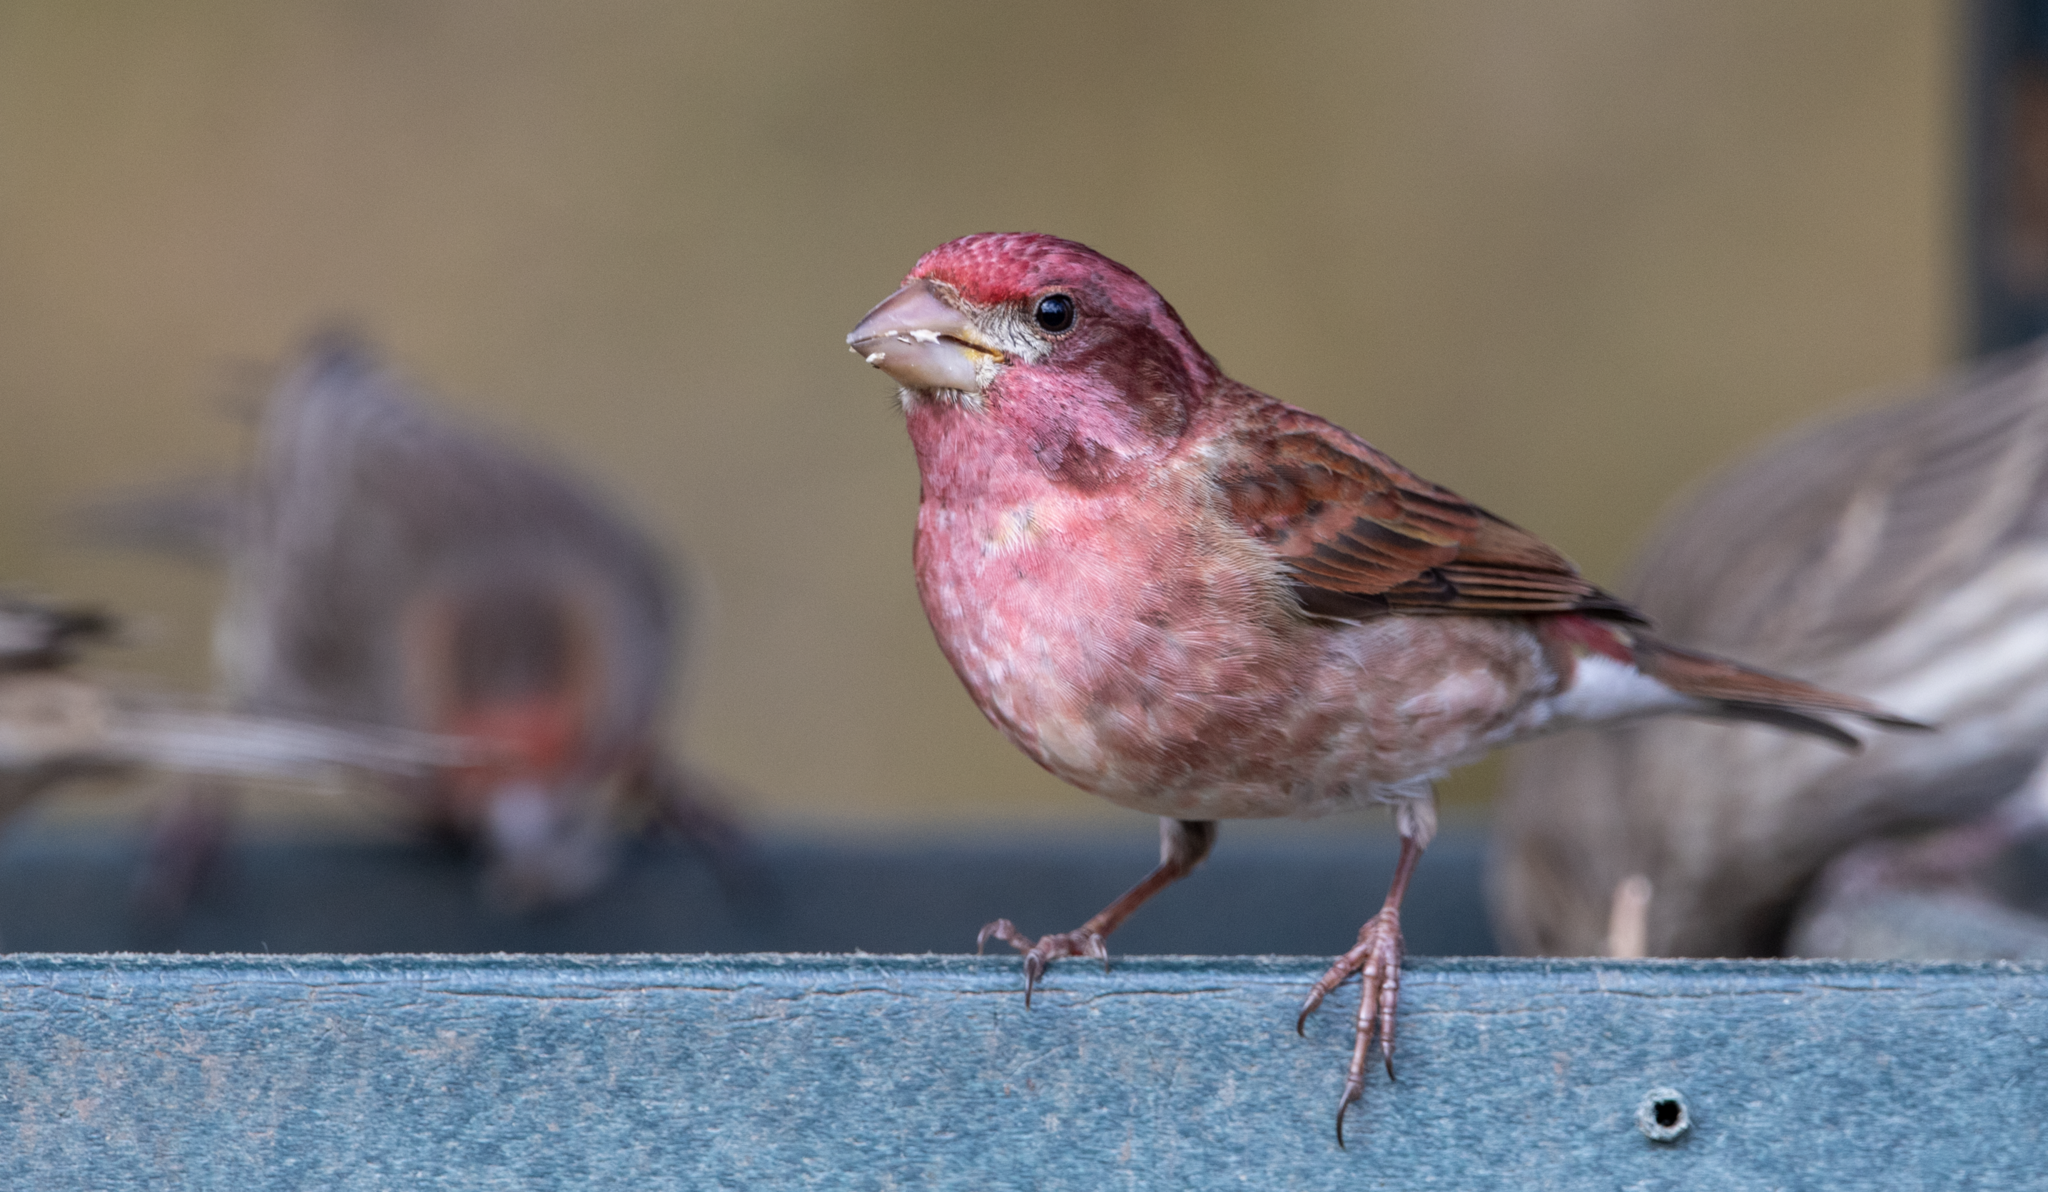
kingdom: Animalia
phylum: Chordata
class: Aves
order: Passeriformes
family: Fringillidae
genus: Haemorhous
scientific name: Haemorhous purpureus
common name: Purple finch
